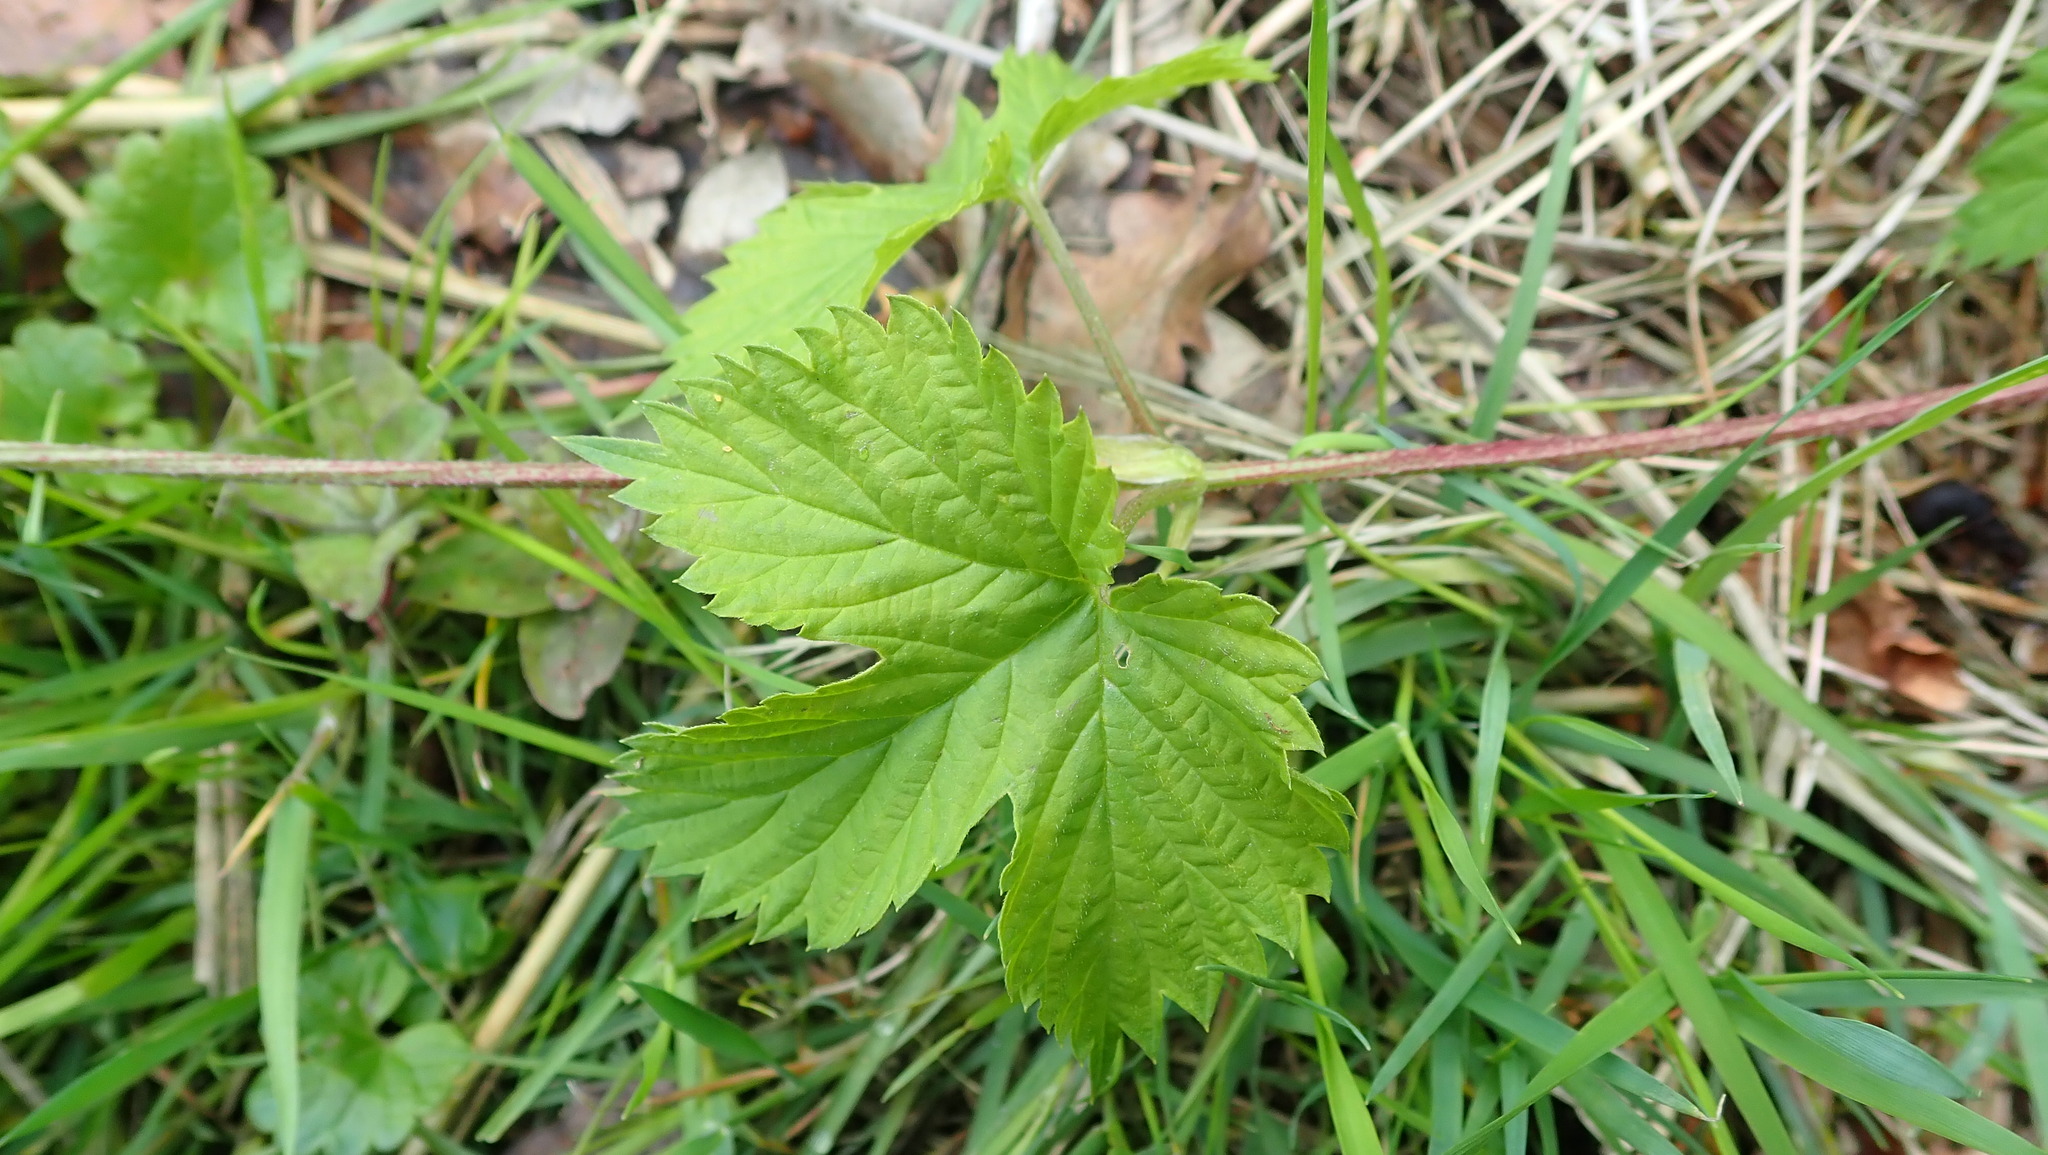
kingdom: Plantae
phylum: Tracheophyta
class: Magnoliopsida
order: Rosales
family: Cannabaceae
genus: Humulus
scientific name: Humulus lupulus
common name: Hop
